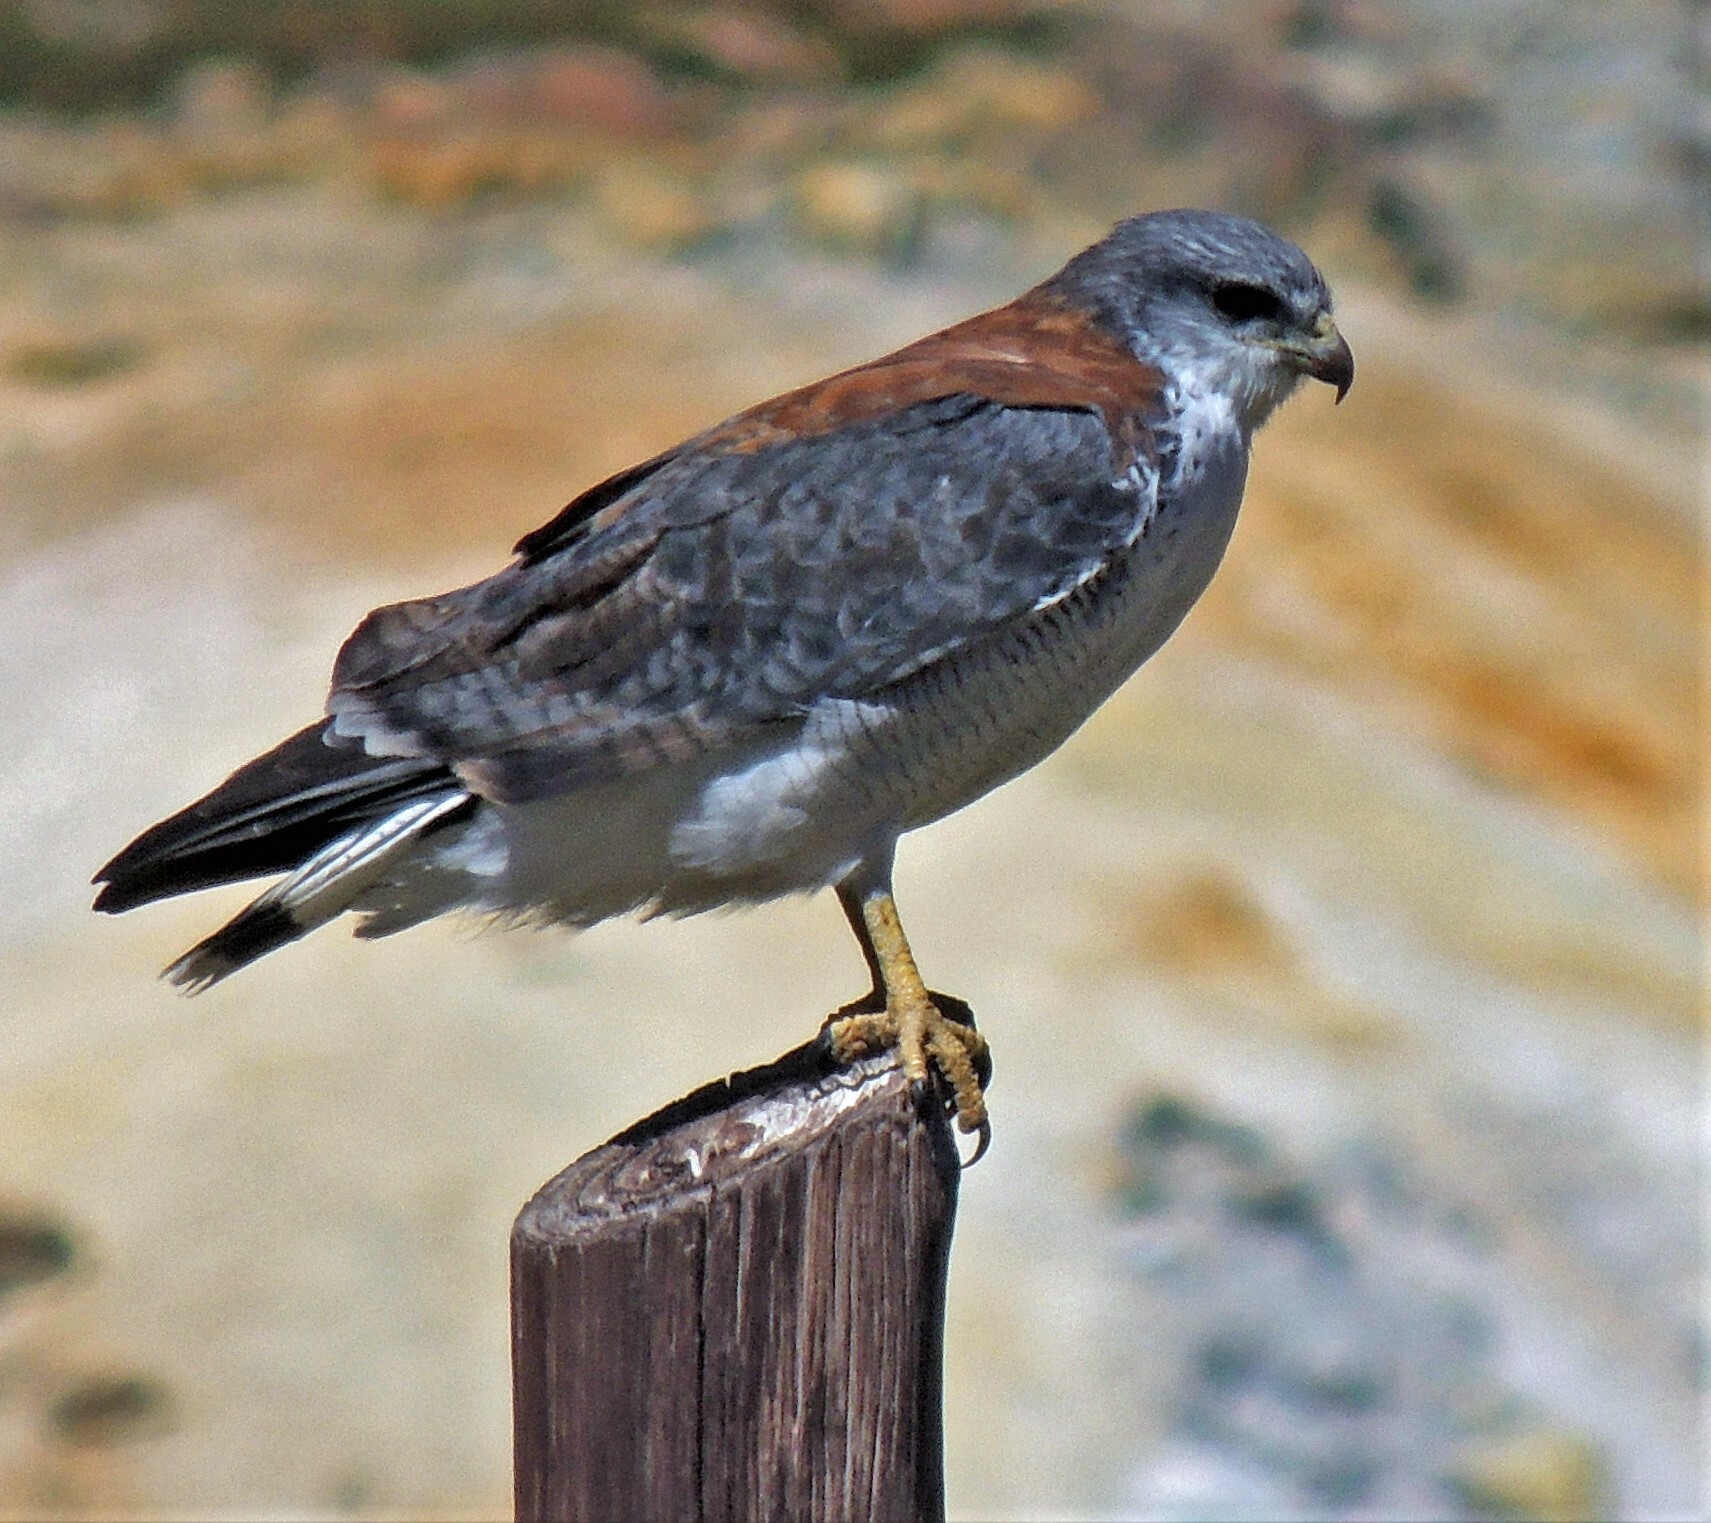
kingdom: Animalia
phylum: Chordata
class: Aves
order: Accipitriformes
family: Accipitridae
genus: Buteo
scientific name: Buteo polyosoma
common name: Variable hawk
